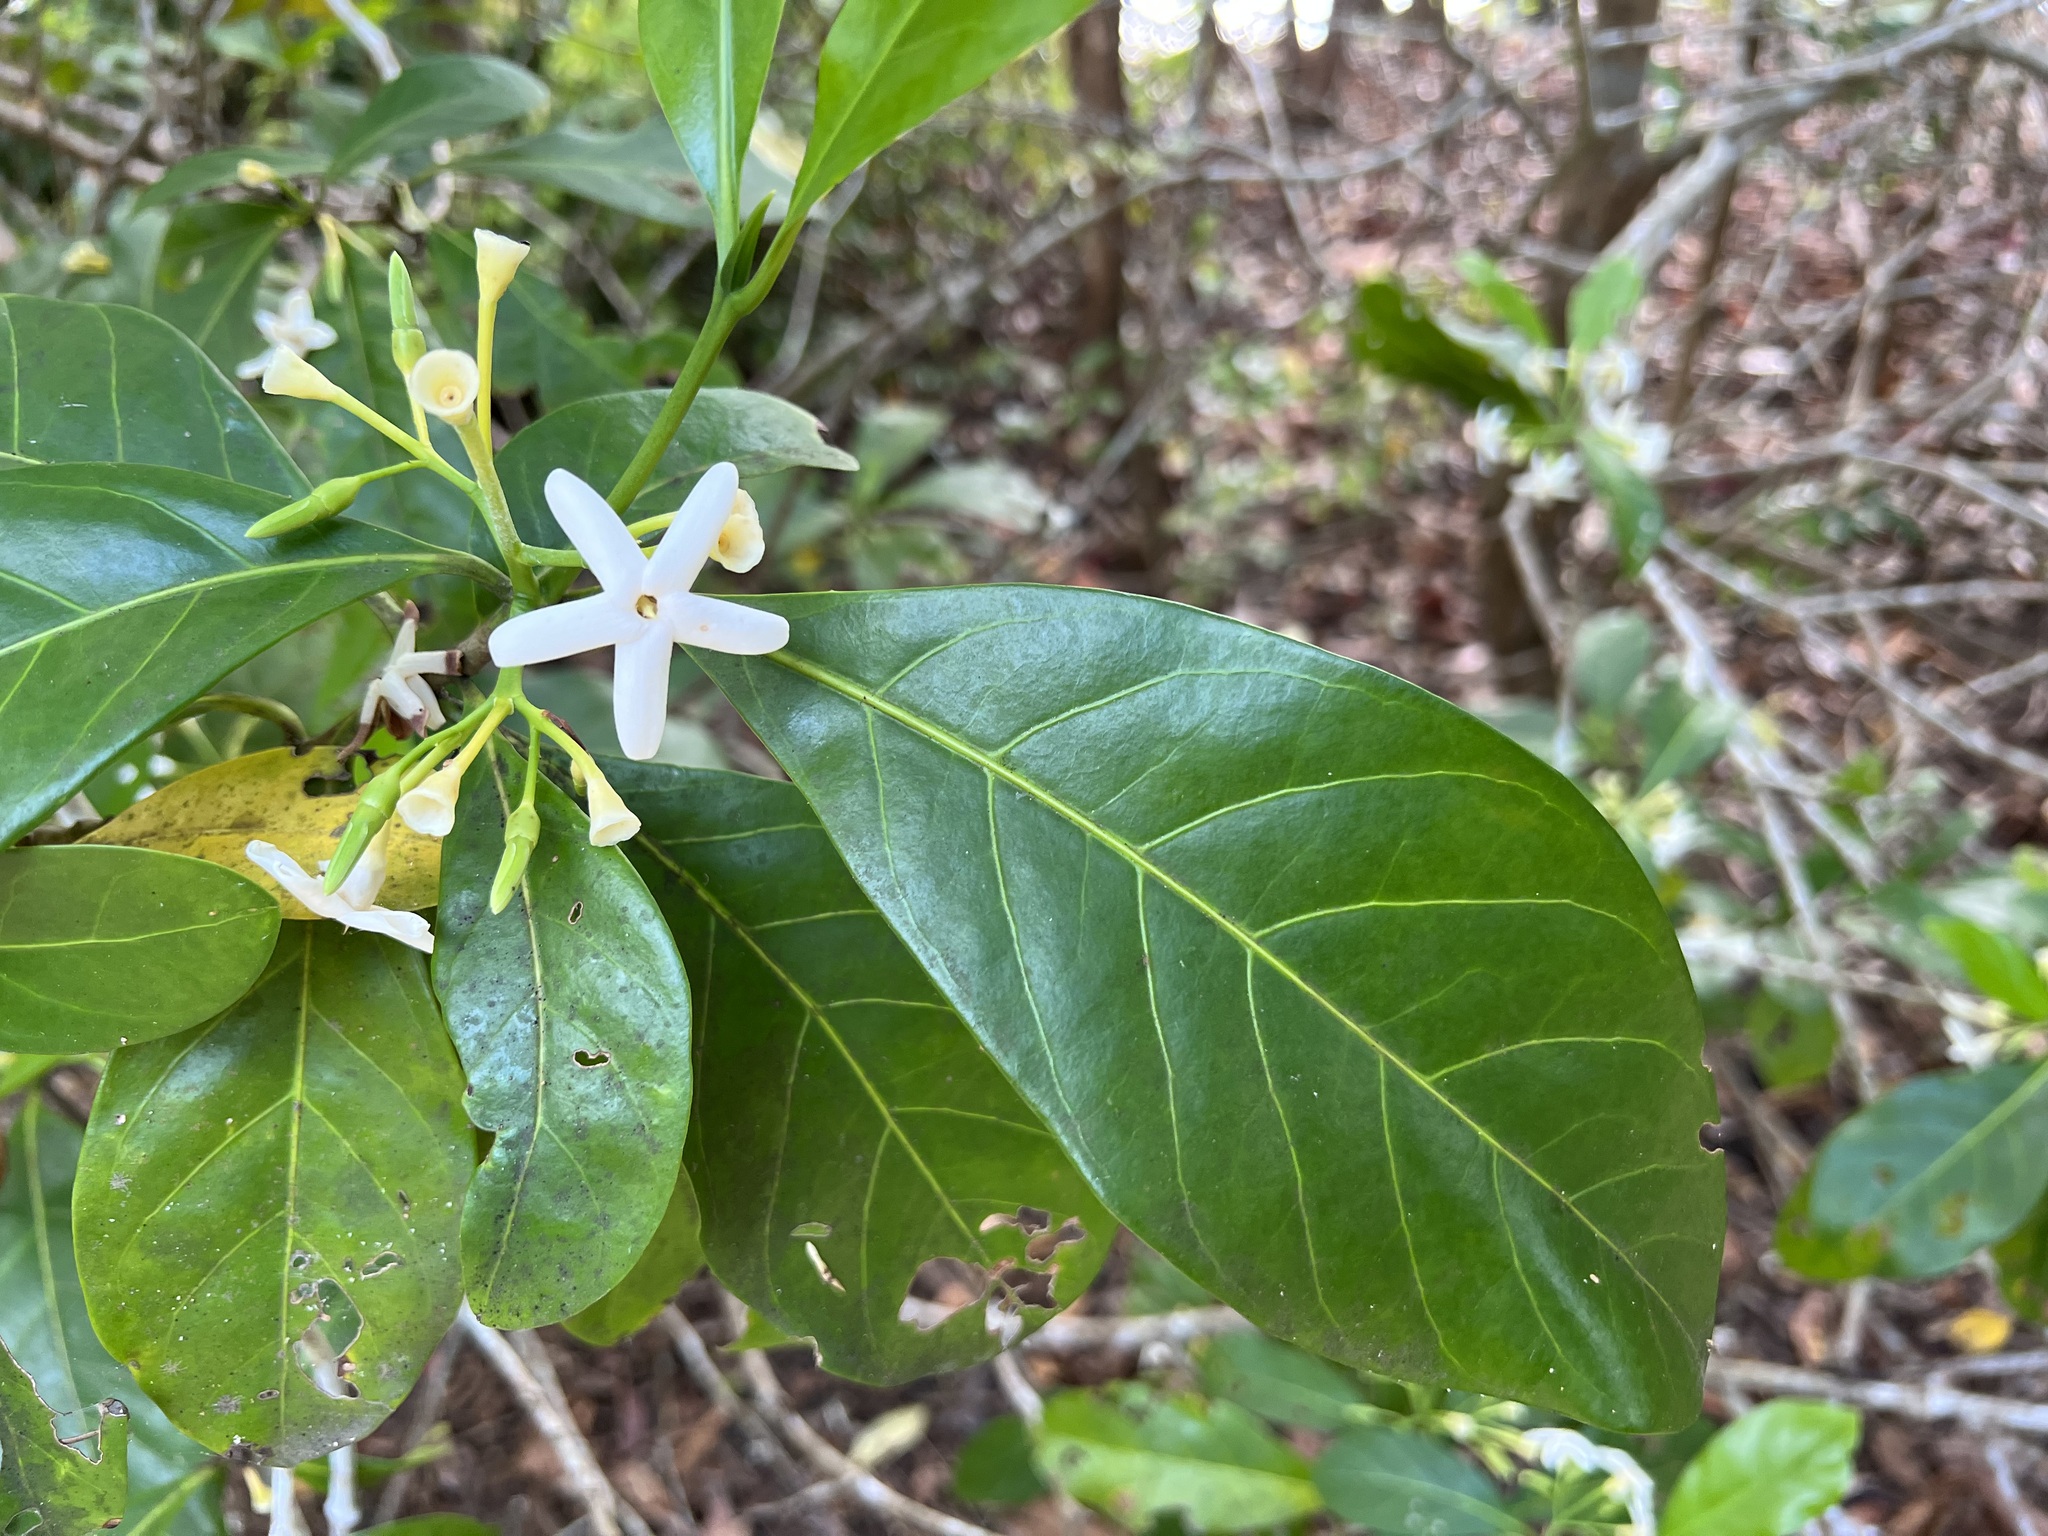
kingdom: Plantae
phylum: Tracheophyta
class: Magnoliopsida
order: Gentianales
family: Rubiaceae
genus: Atractocarpus
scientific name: Atractocarpus fitzalanii
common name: Randia
